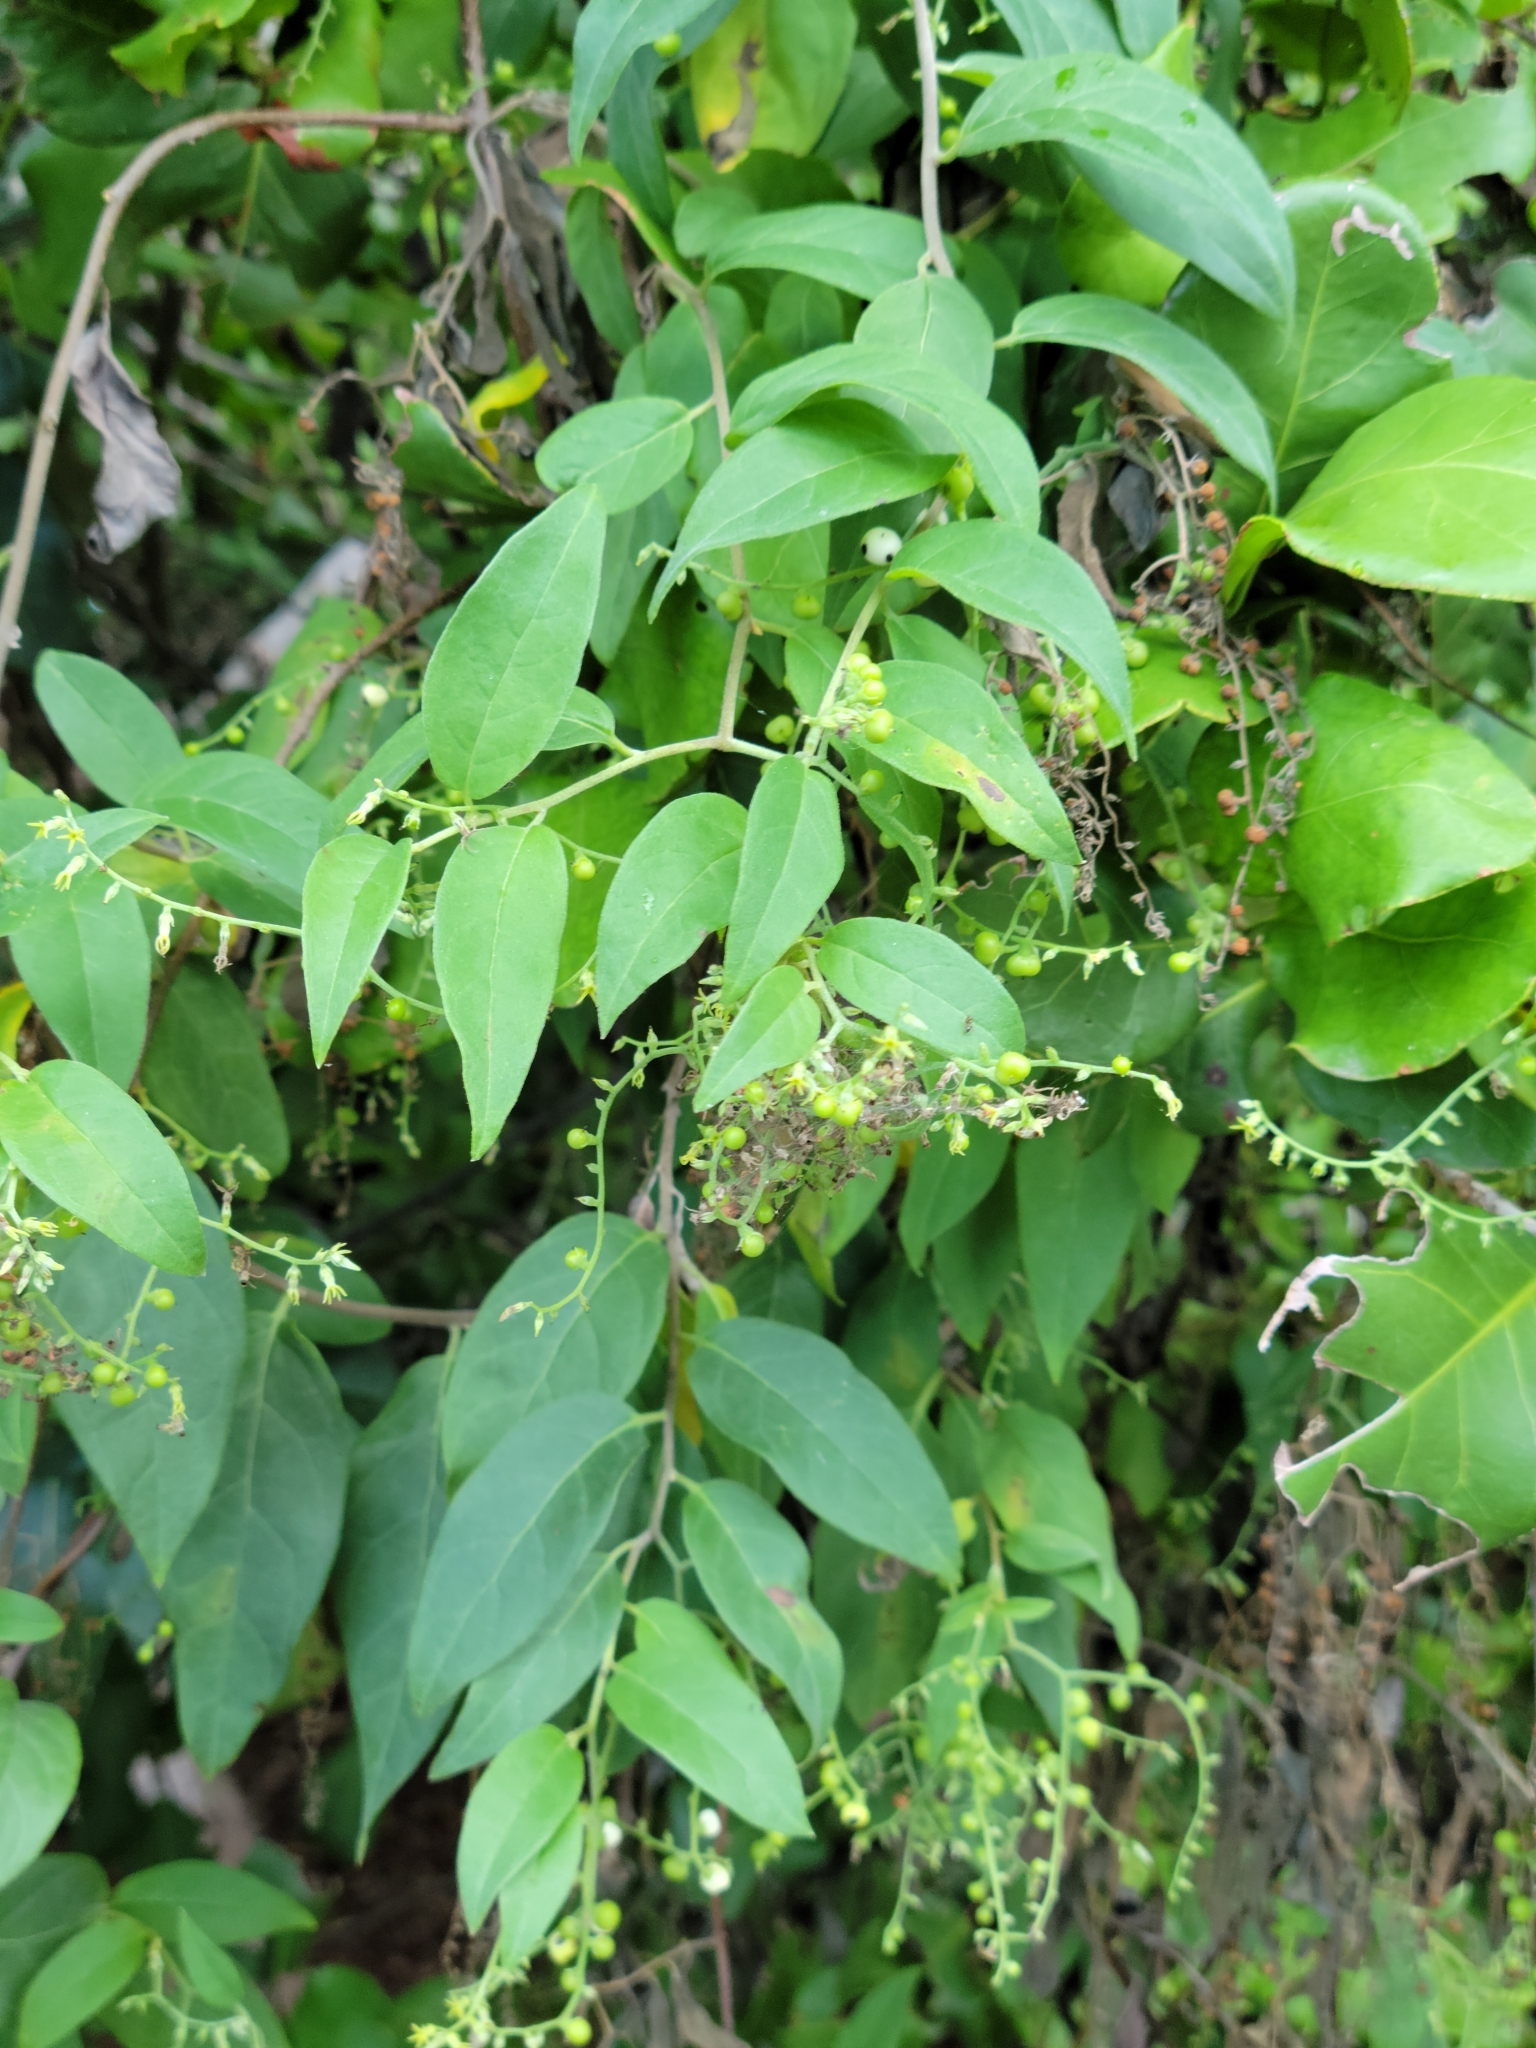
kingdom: Plantae
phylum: Tracheophyta
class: Magnoliopsida
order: Boraginales
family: Heliotropiaceae
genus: Myriopus
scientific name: Myriopus volubilis
